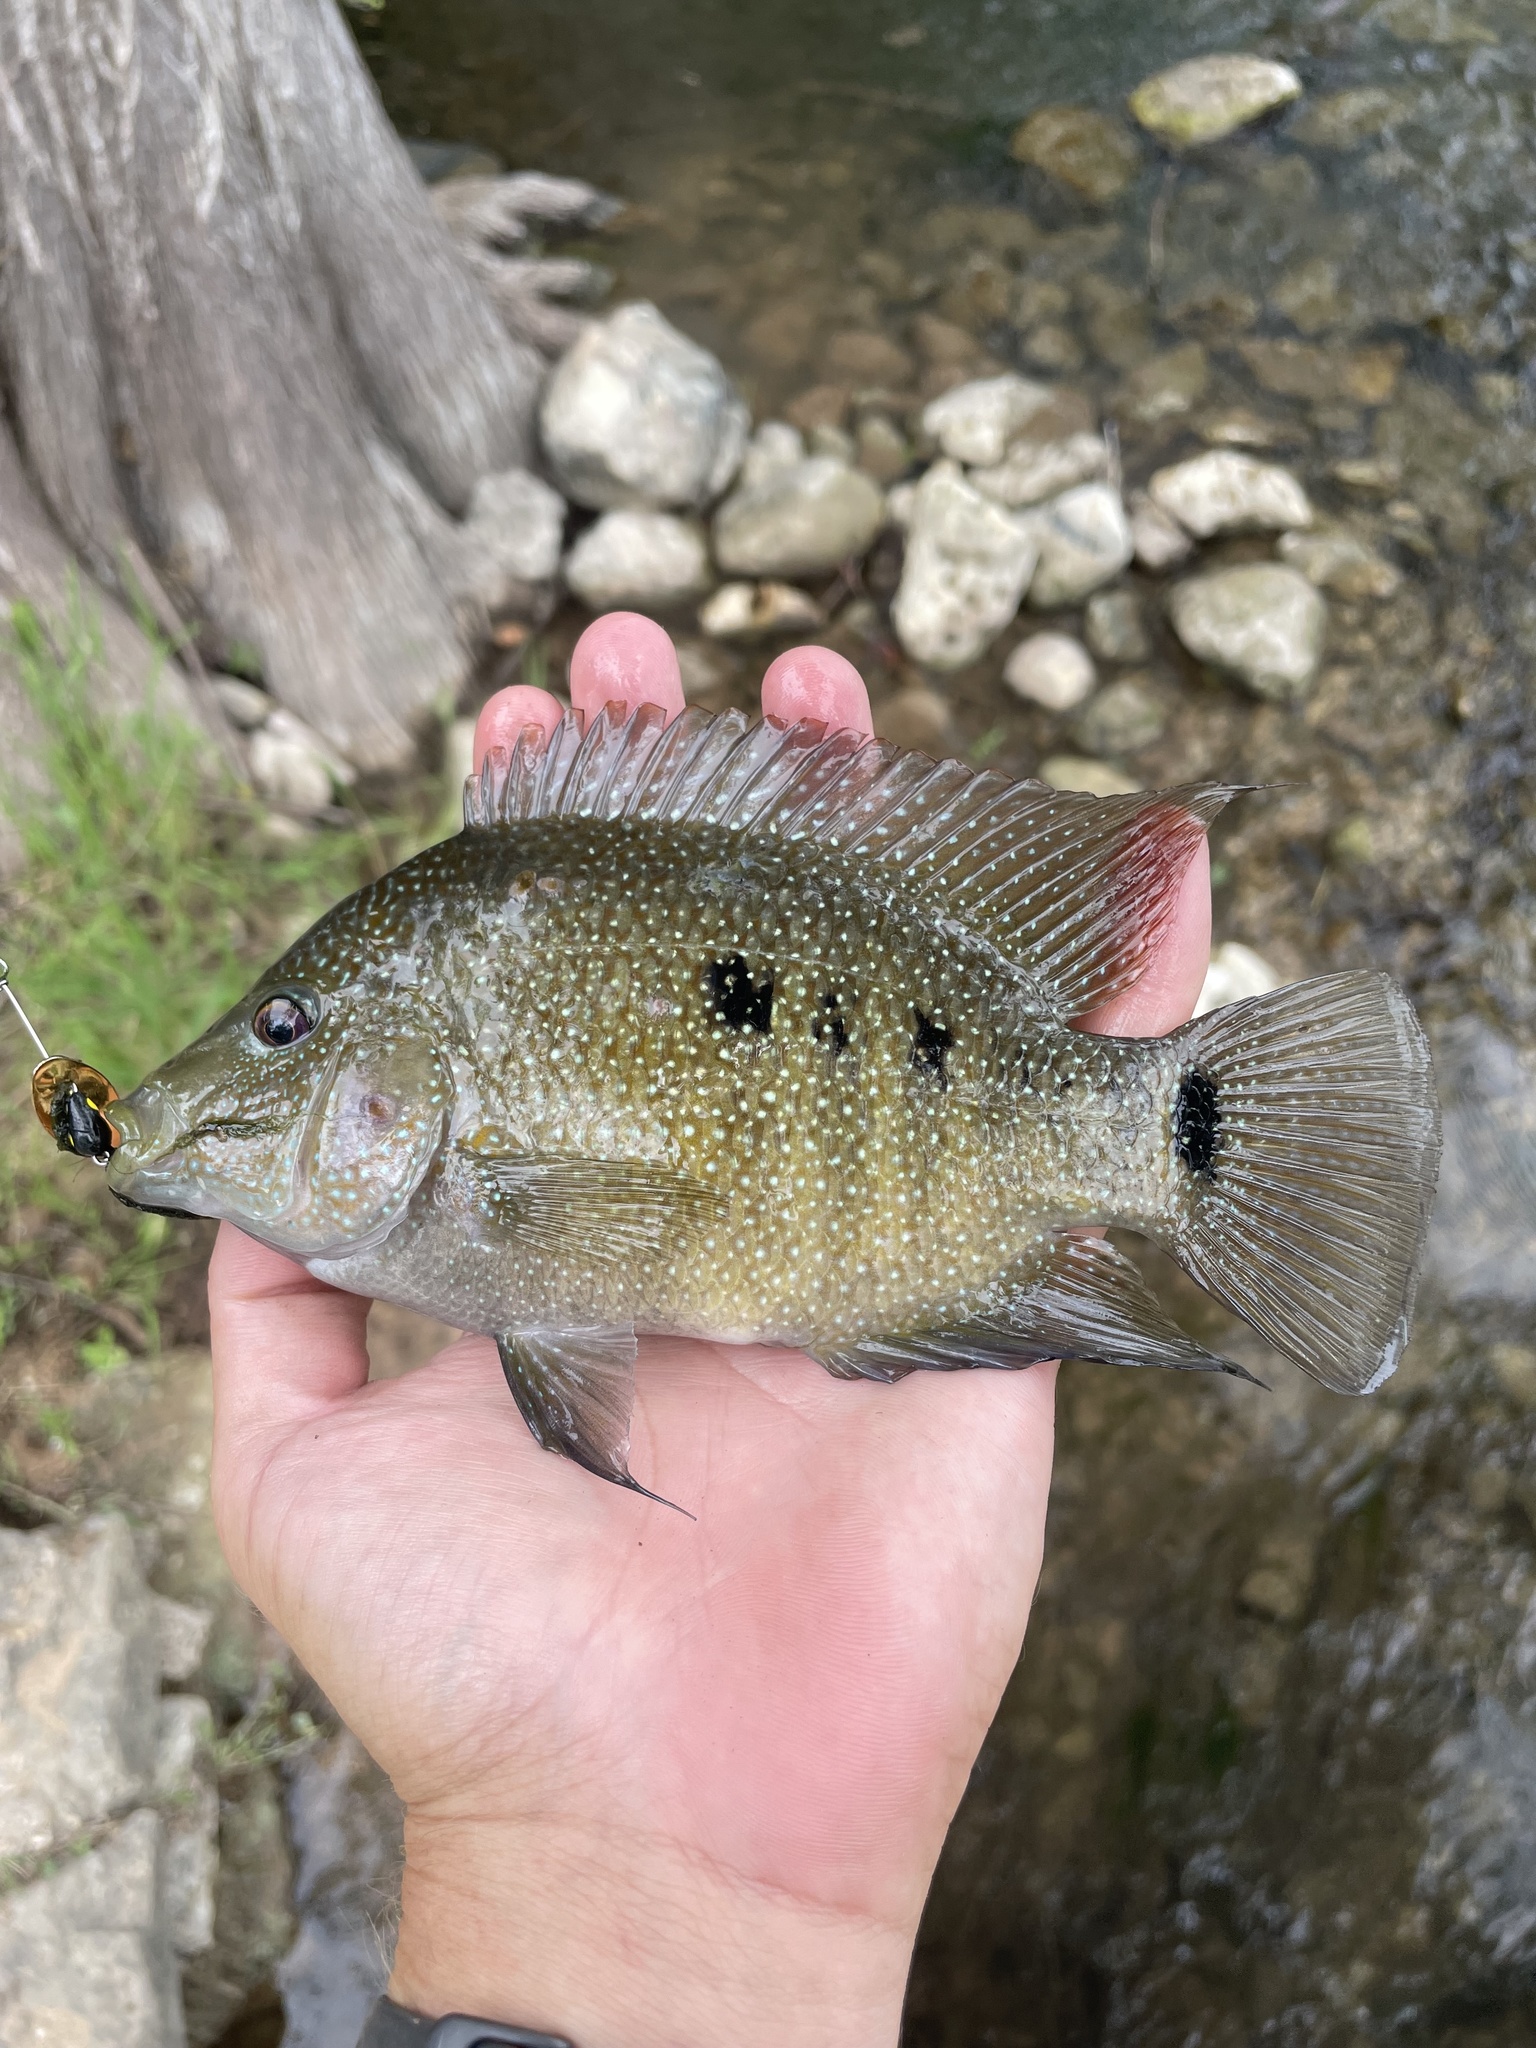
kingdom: Animalia
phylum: Chordata
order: Perciformes
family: Cichlidae
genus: Herichthys
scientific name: Herichthys cyanoguttatus
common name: Rio grande cichlid
